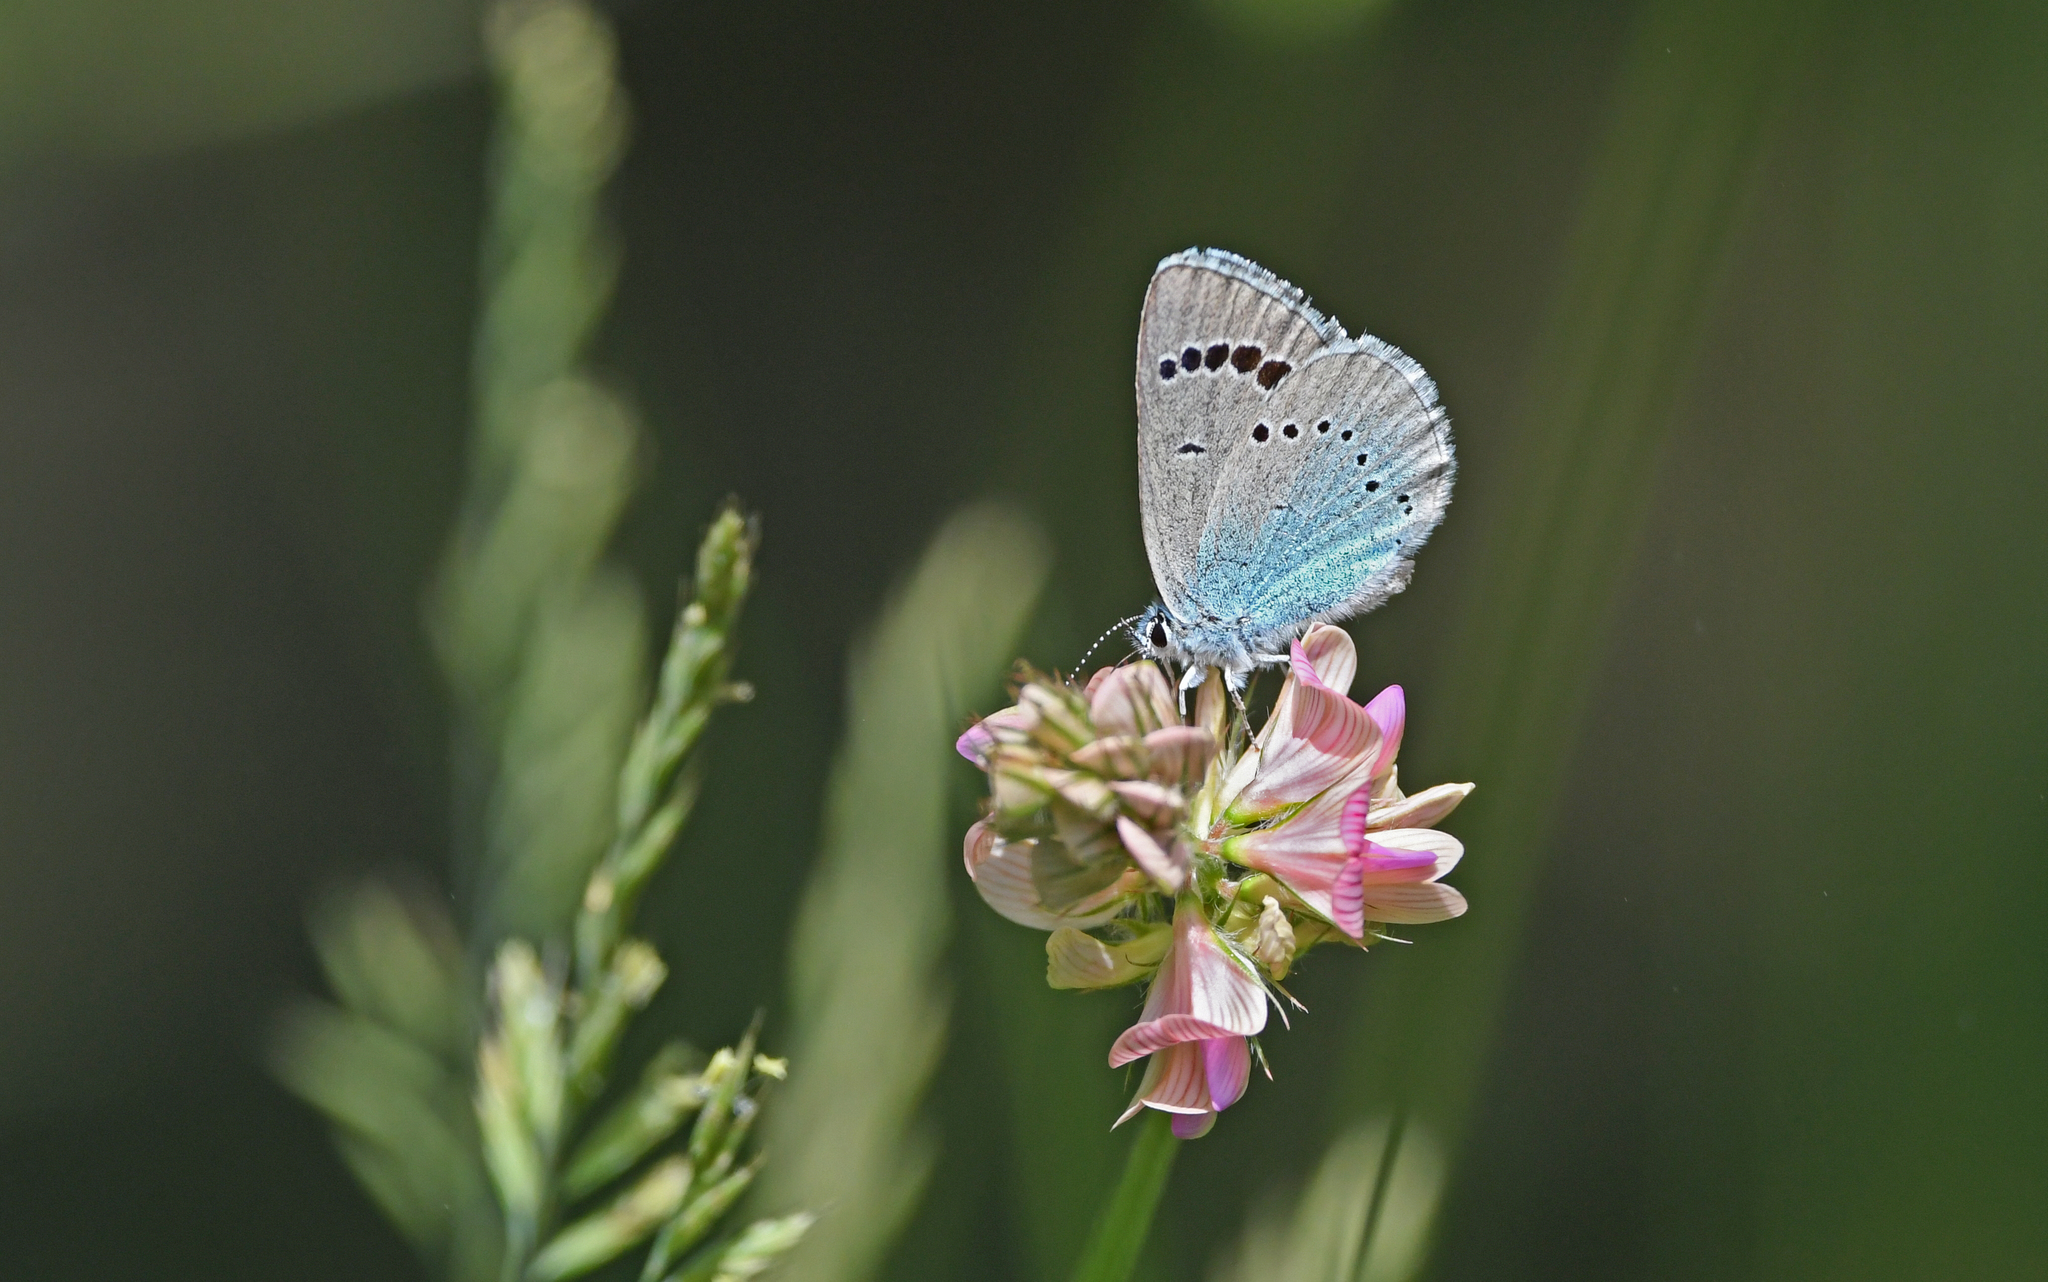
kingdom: Animalia
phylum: Arthropoda
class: Insecta
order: Lepidoptera
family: Lycaenidae
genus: Glaucopsyche
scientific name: Glaucopsyche alexis
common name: Green-underside blue
